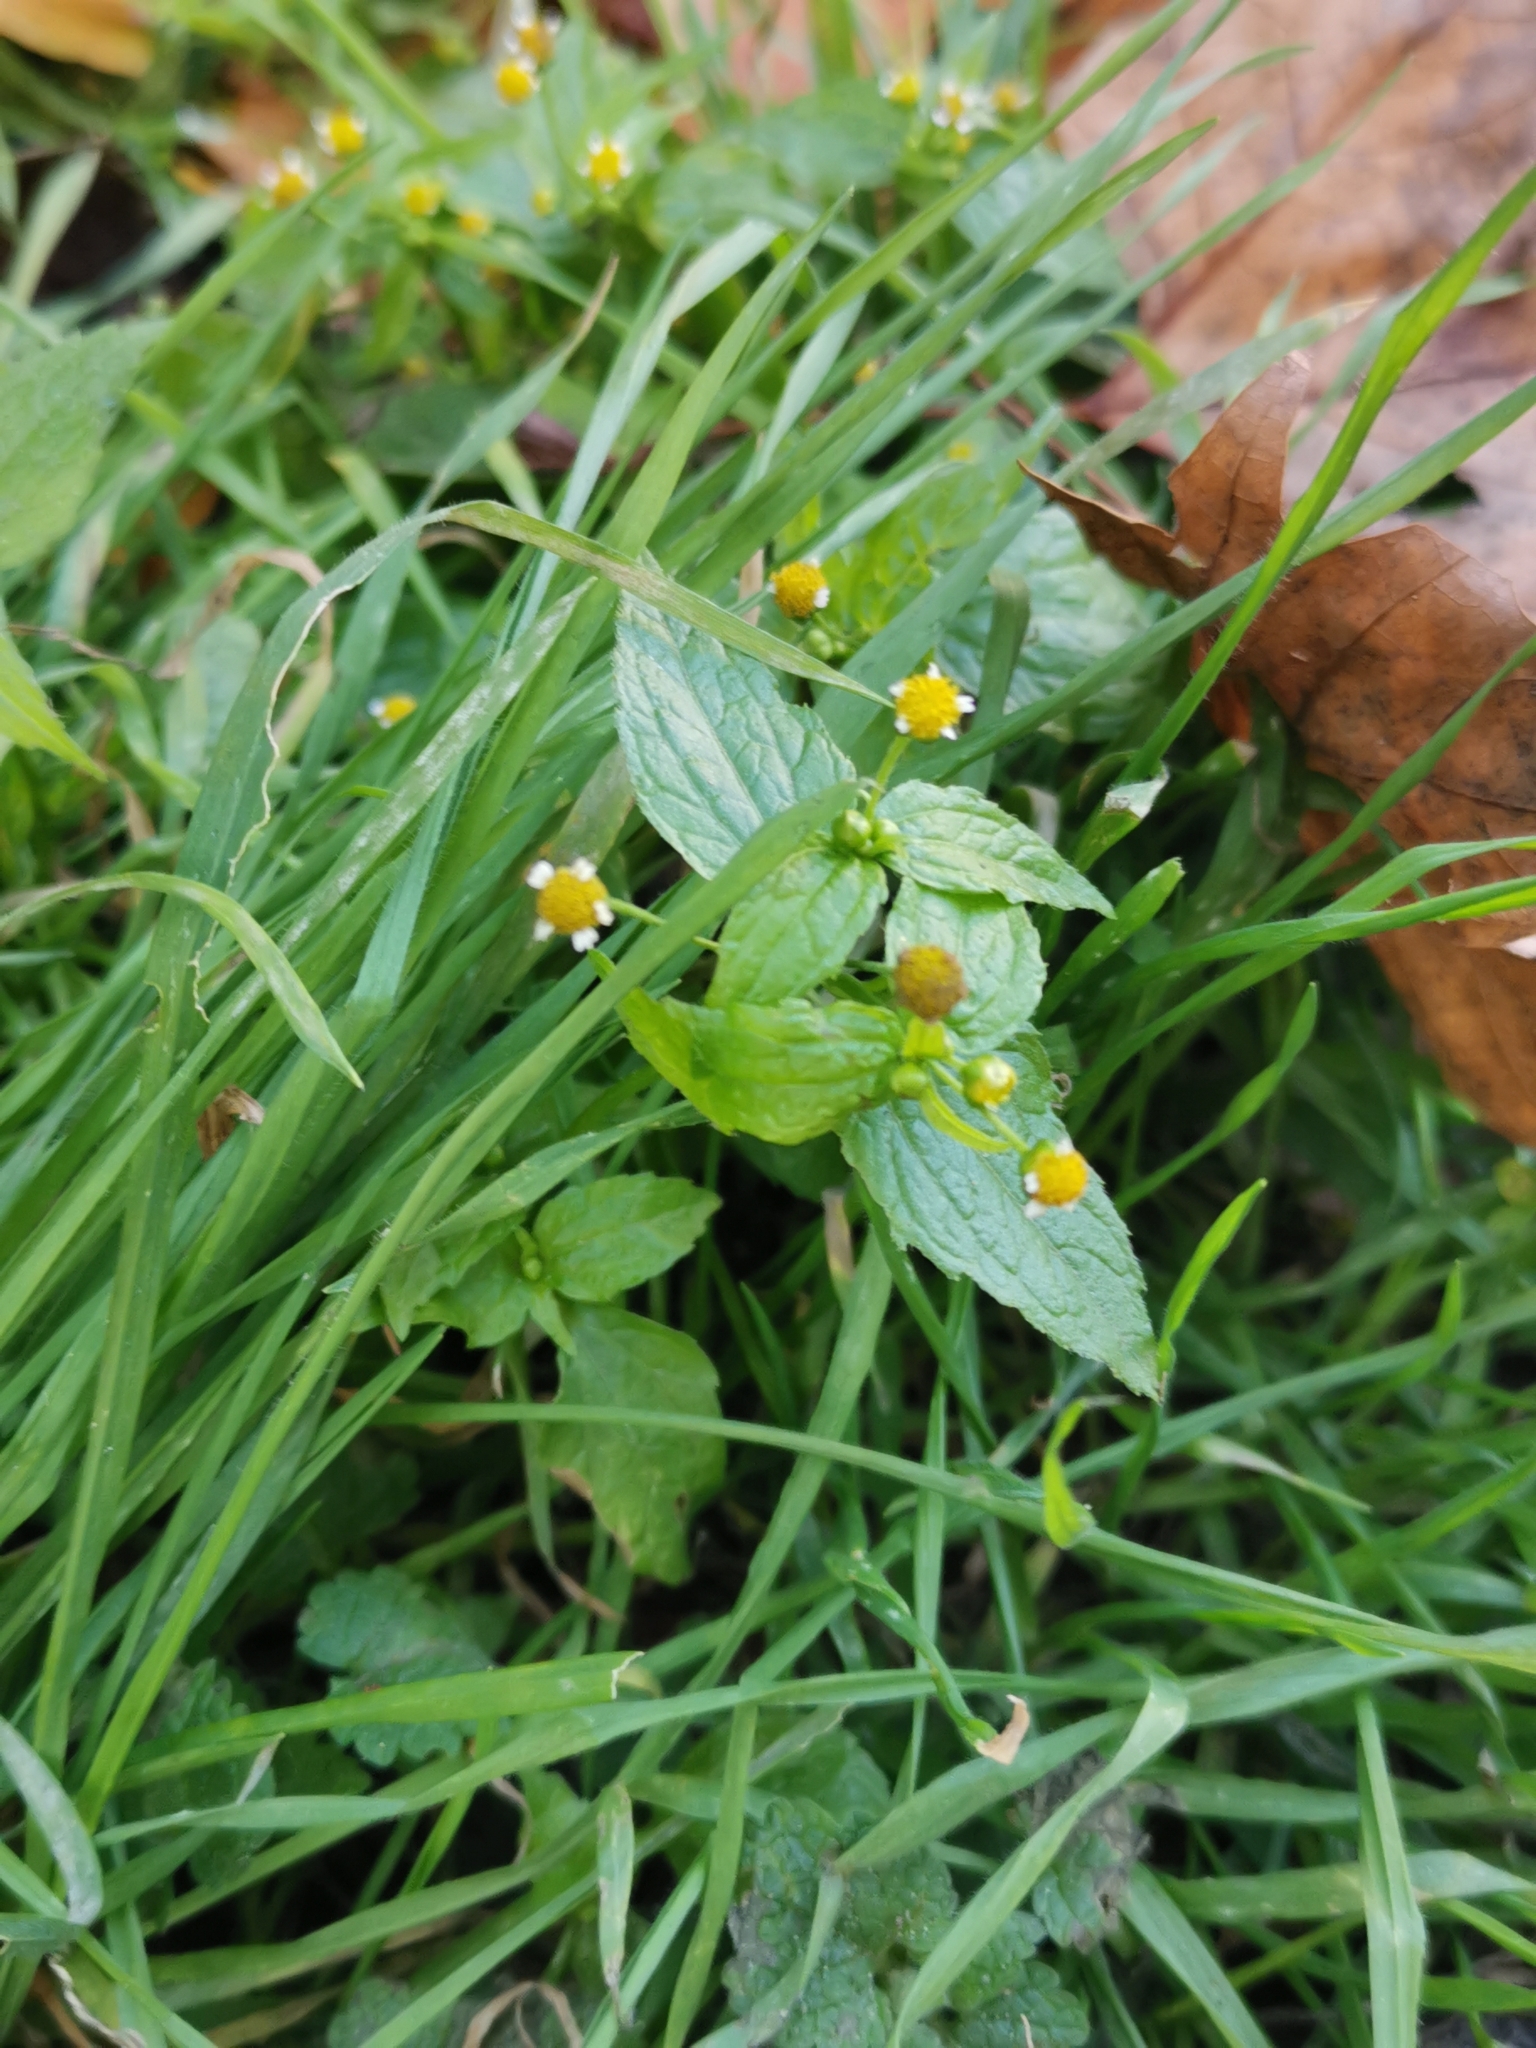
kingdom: Plantae
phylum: Tracheophyta
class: Magnoliopsida
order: Asterales
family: Asteraceae
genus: Galinsoga
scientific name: Galinsoga parviflora
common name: Gallant soldier
